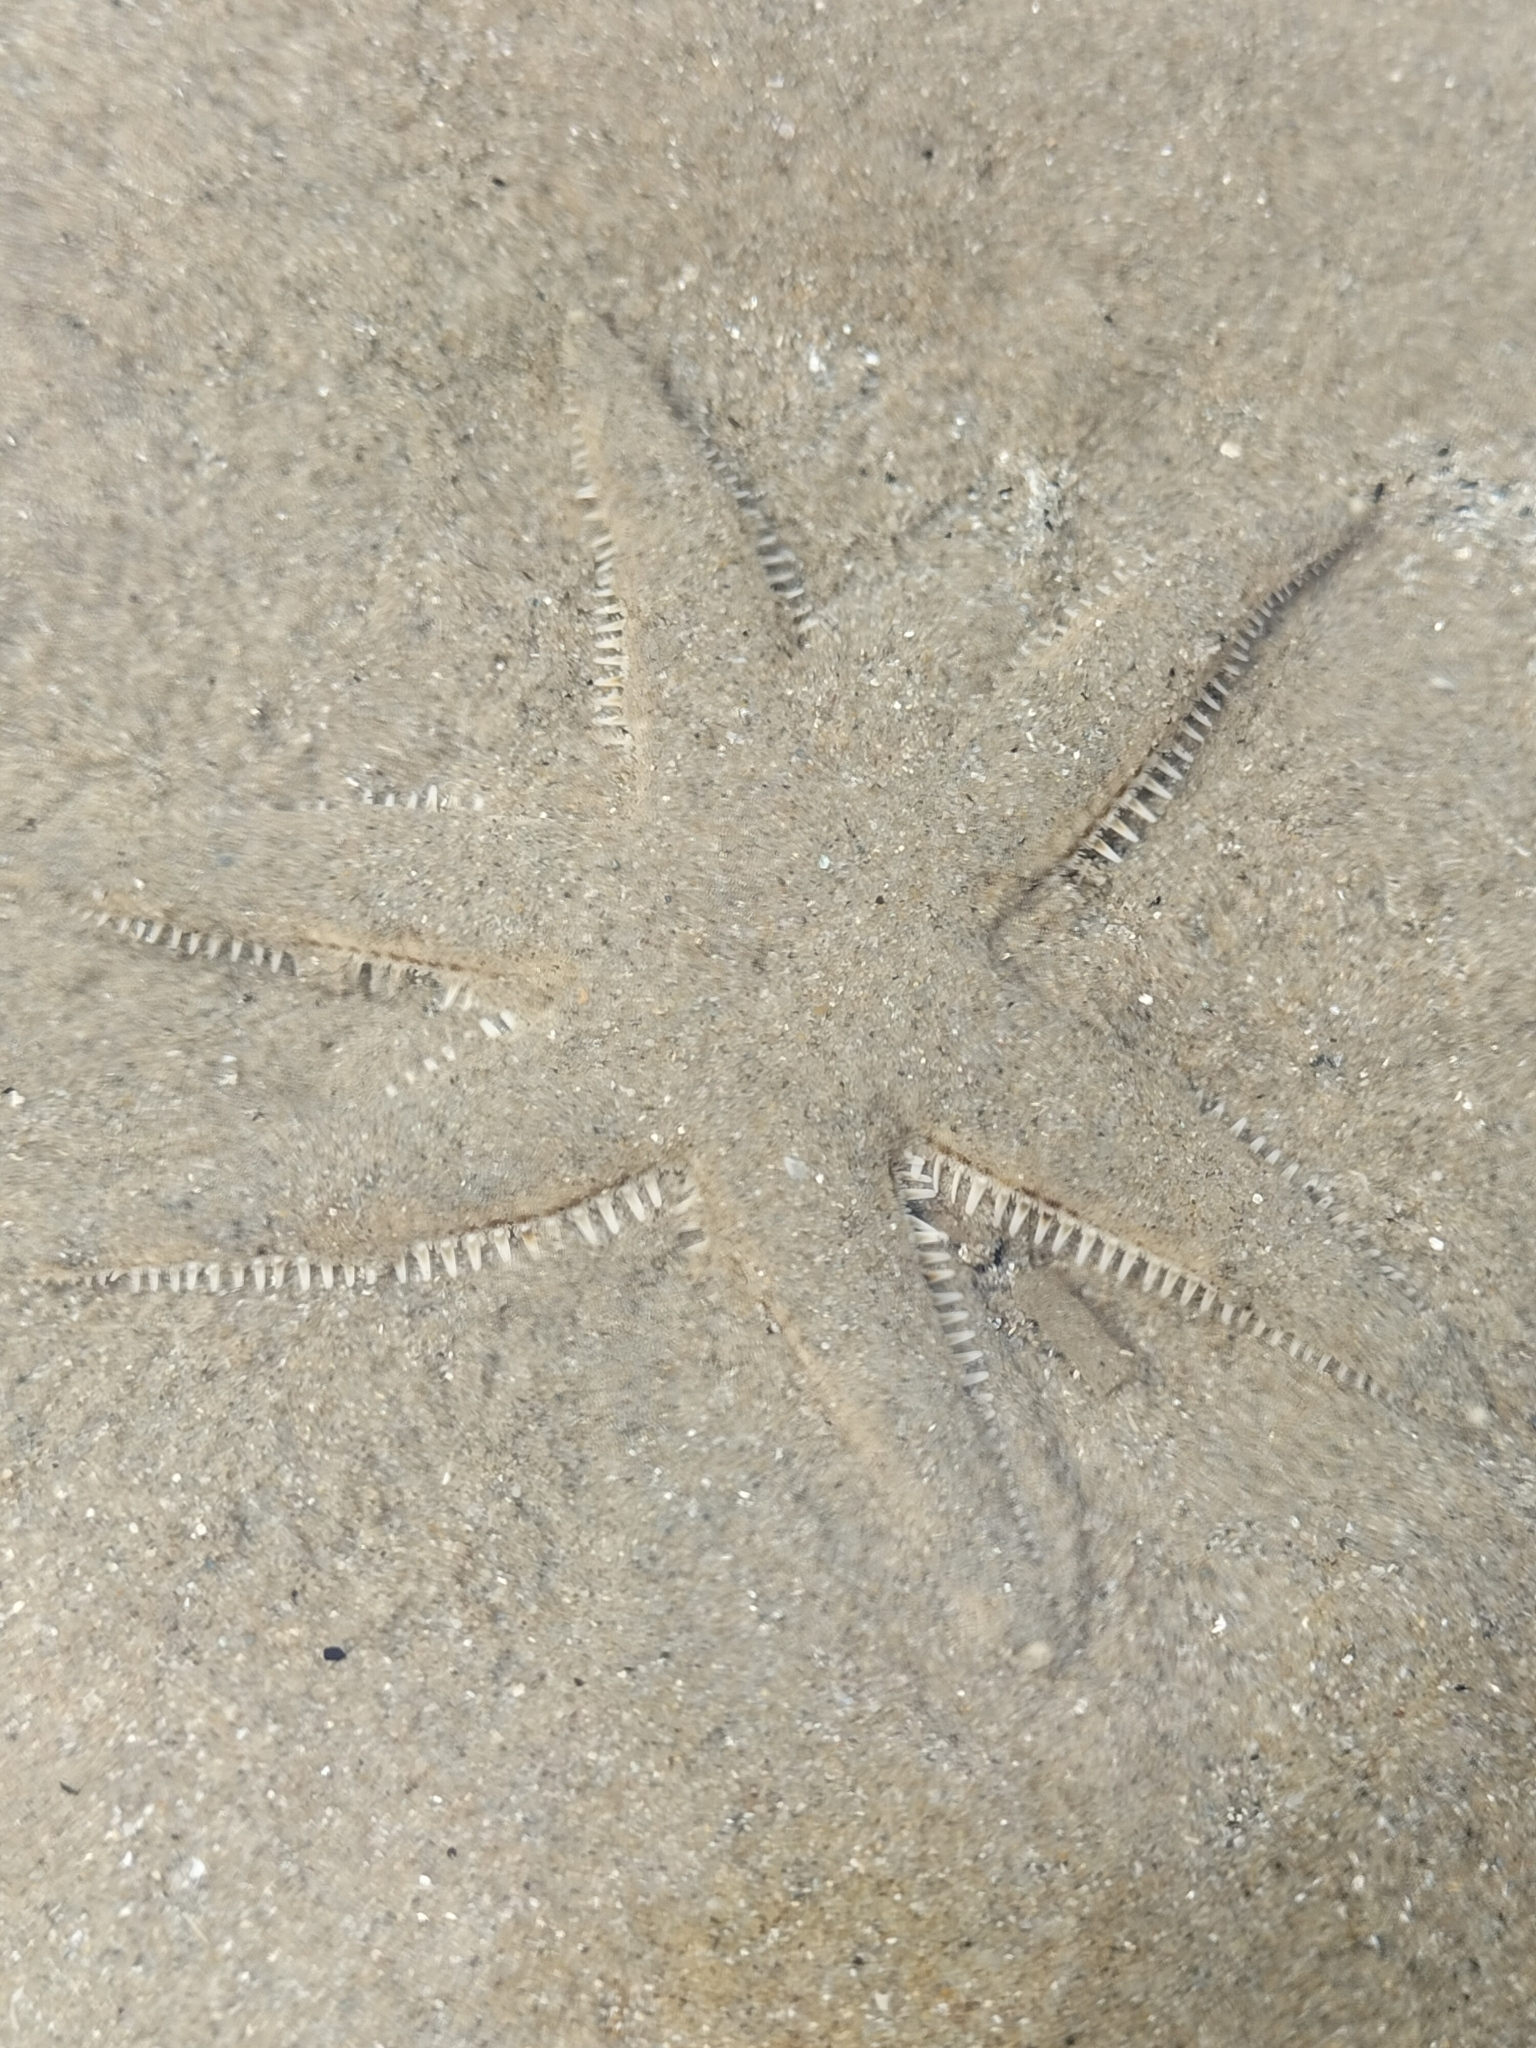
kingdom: Animalia
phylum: Echinodermata
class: Asteroidea
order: Valvatida
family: Archasteridae
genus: Archaster
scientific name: Archaster typicus
